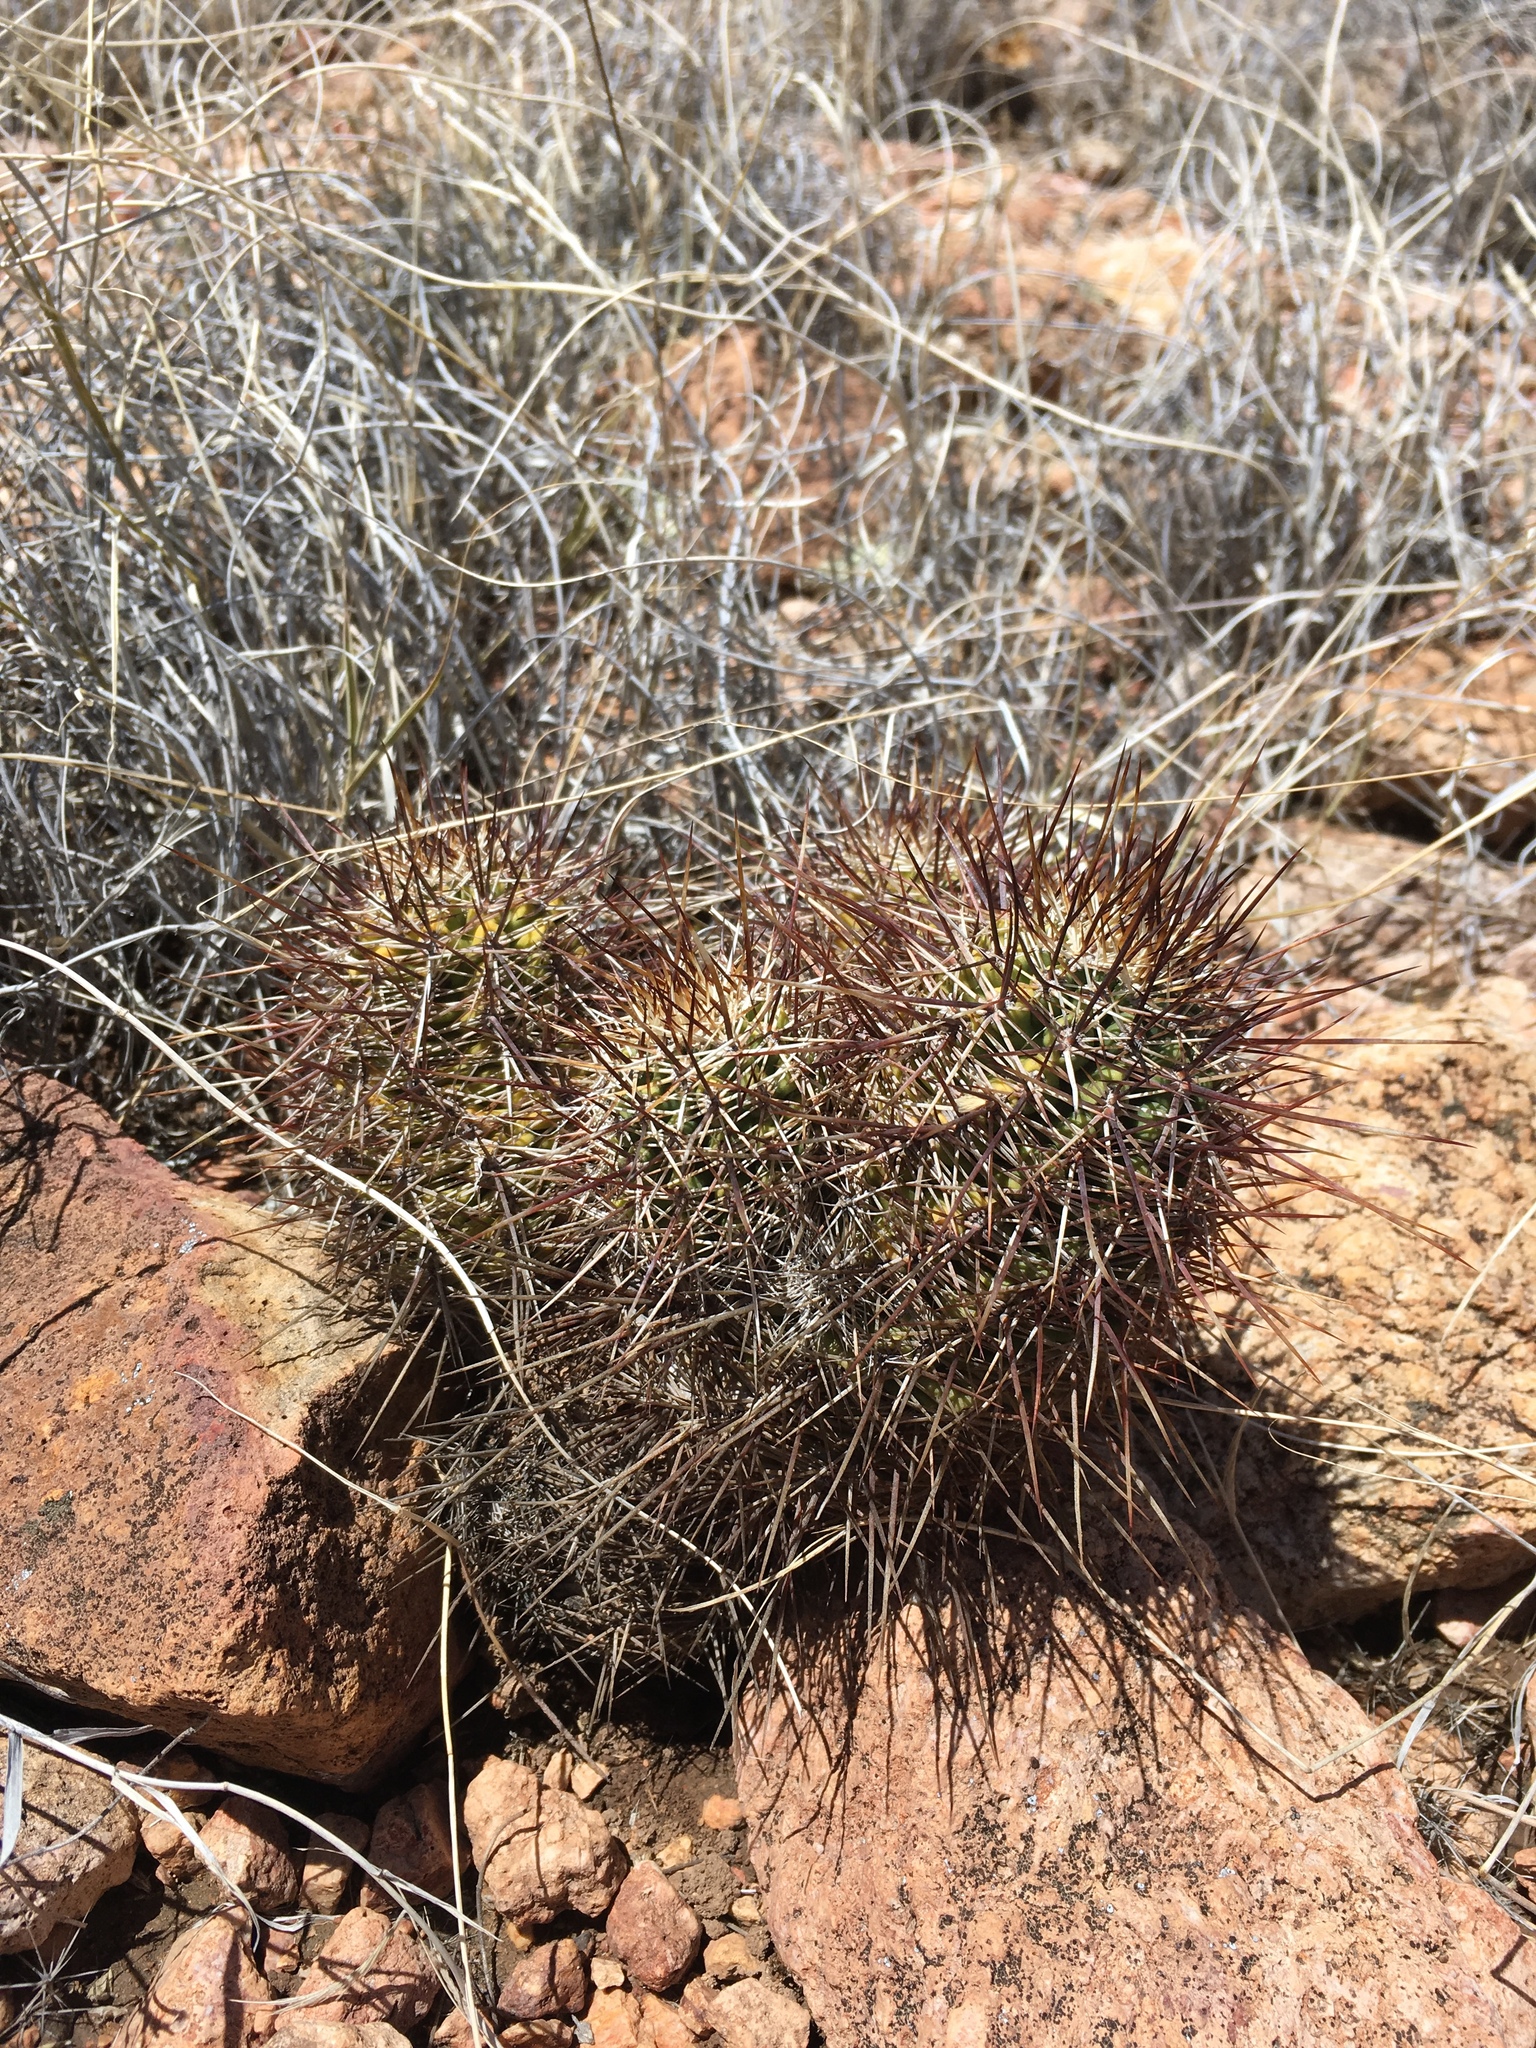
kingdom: Plantae
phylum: Tracheophyta
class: Magnoliopsida
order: Caryophyllales
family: Cactaceae
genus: Echinocereus
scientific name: Echinocereus arizonicus
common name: Arizona hedgehog cactus
